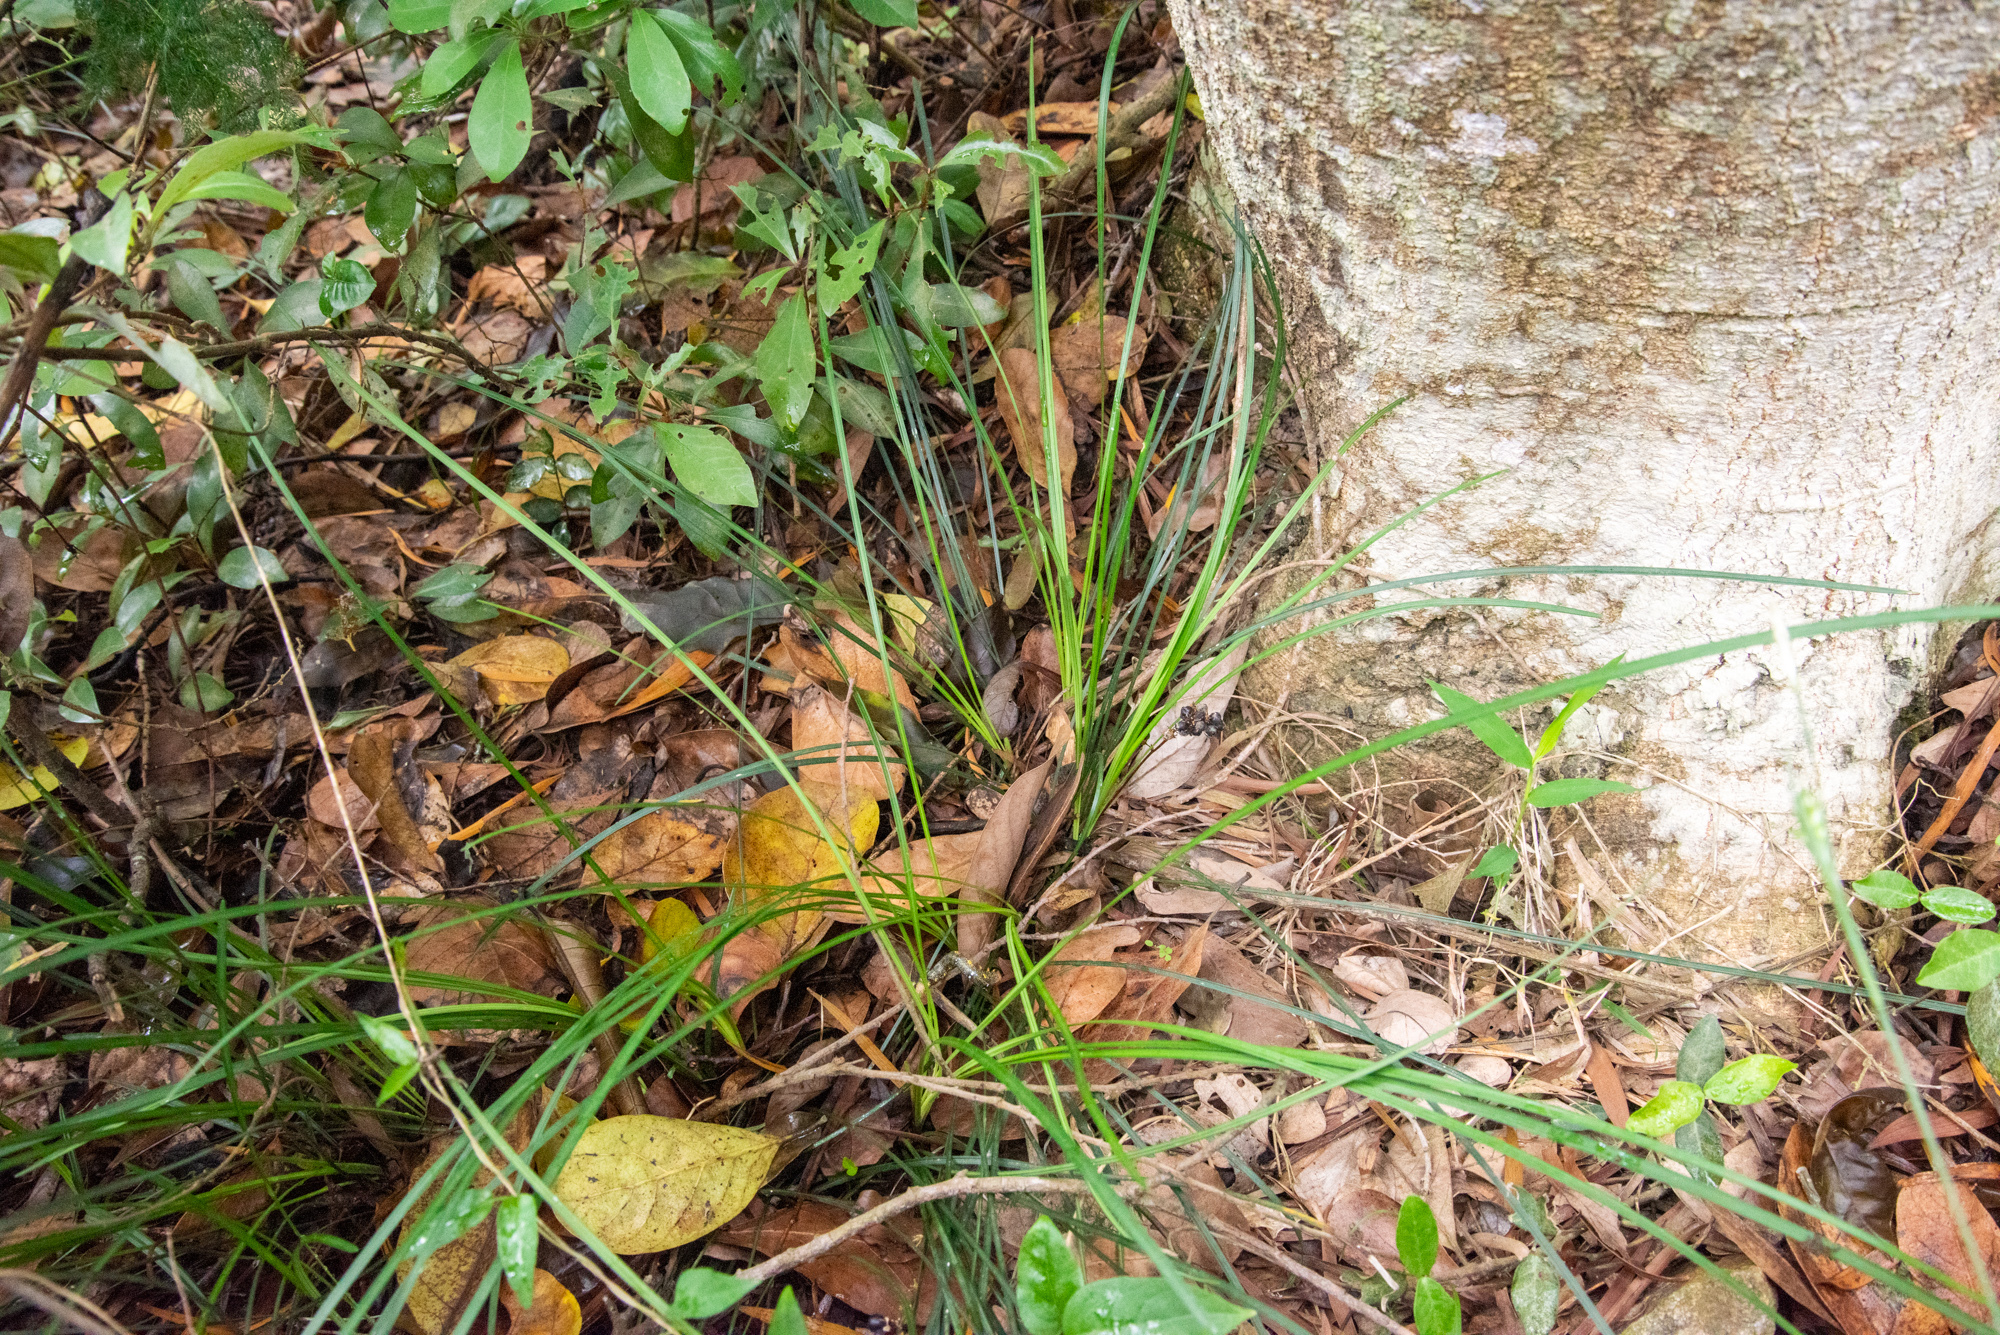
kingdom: Plantae
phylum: Tracheophyta
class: Liliopsida
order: Asparagales
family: Asparagaceae
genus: Liriope
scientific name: Liriope graminifolia
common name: Lilyturf
